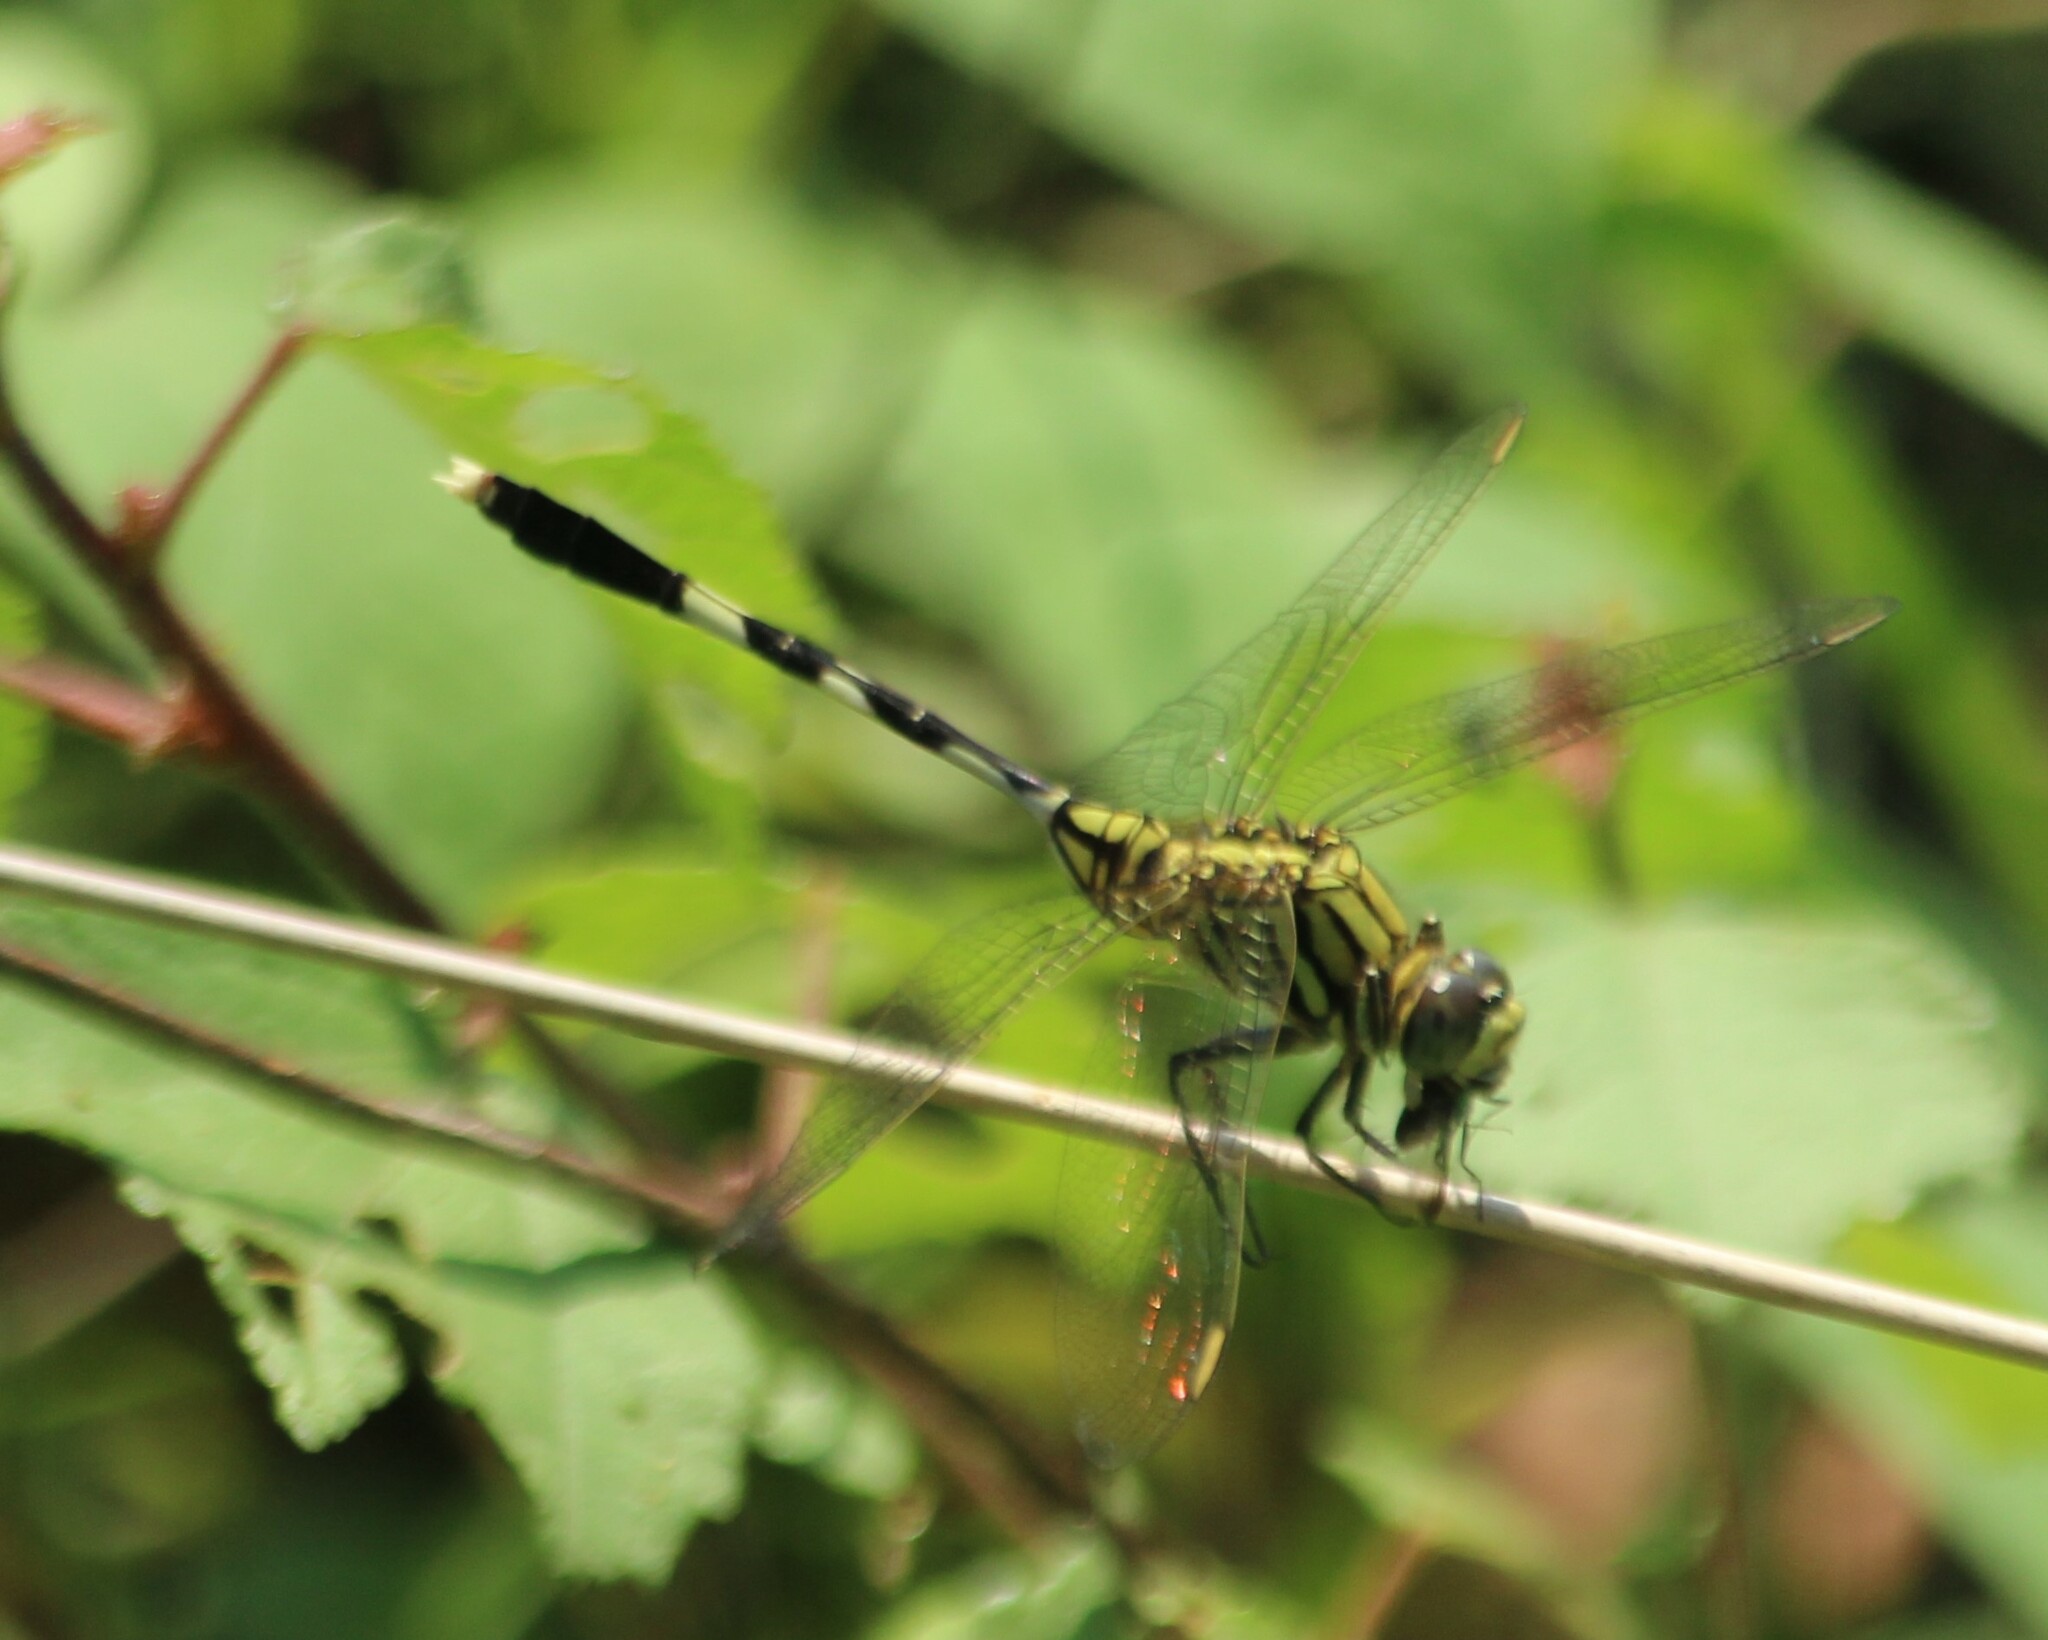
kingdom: Animalia
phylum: Arthropoda
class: Insecta
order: Odonata
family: Libellulidae
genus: Orthetrum
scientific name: Orthetrum sabina
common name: Slender skimmer
